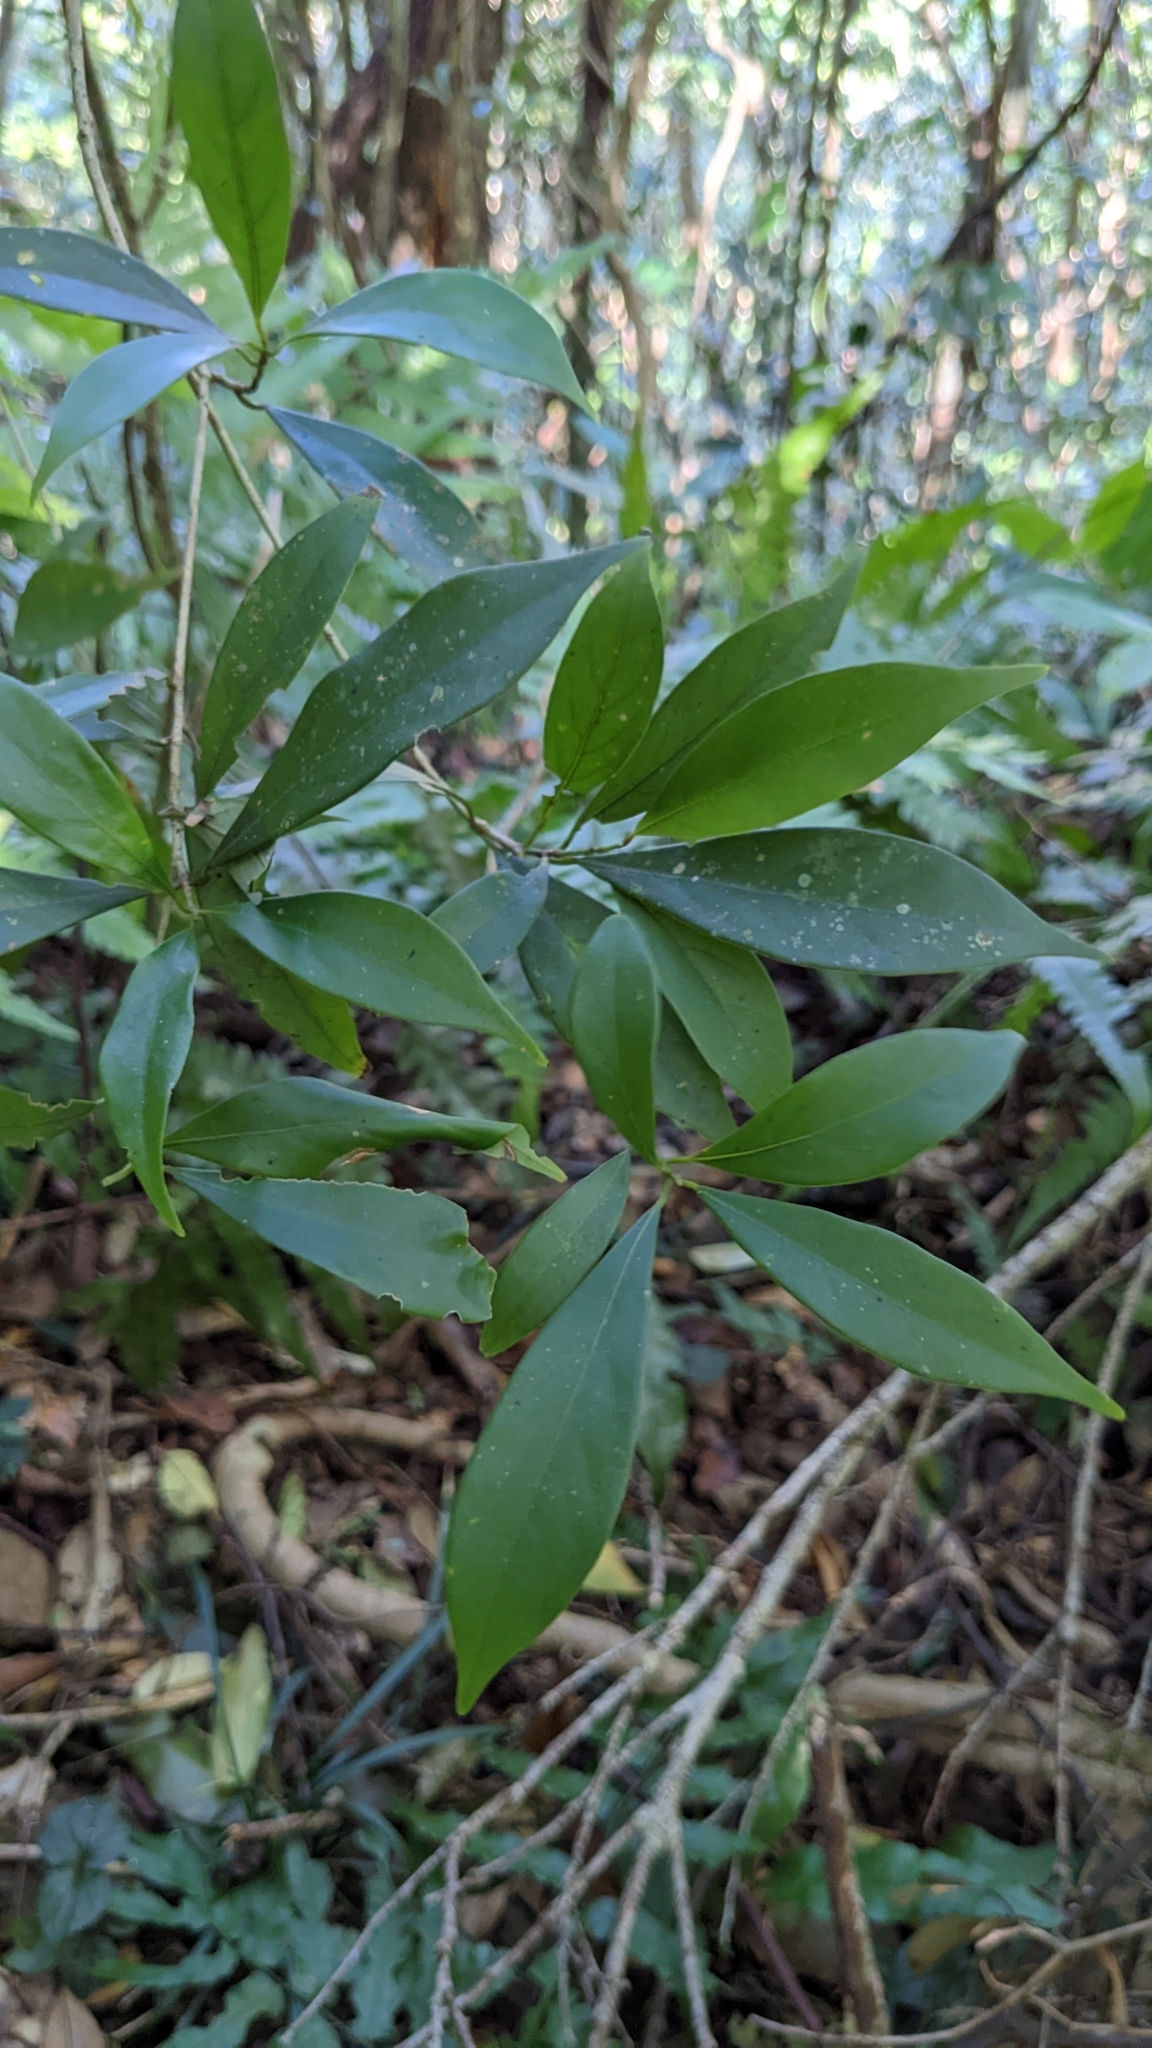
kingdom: Plantae
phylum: Tracheophyta
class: Magnoliopsida
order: Laurales
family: Lauraceae
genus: Machilus
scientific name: Machilus konishii
